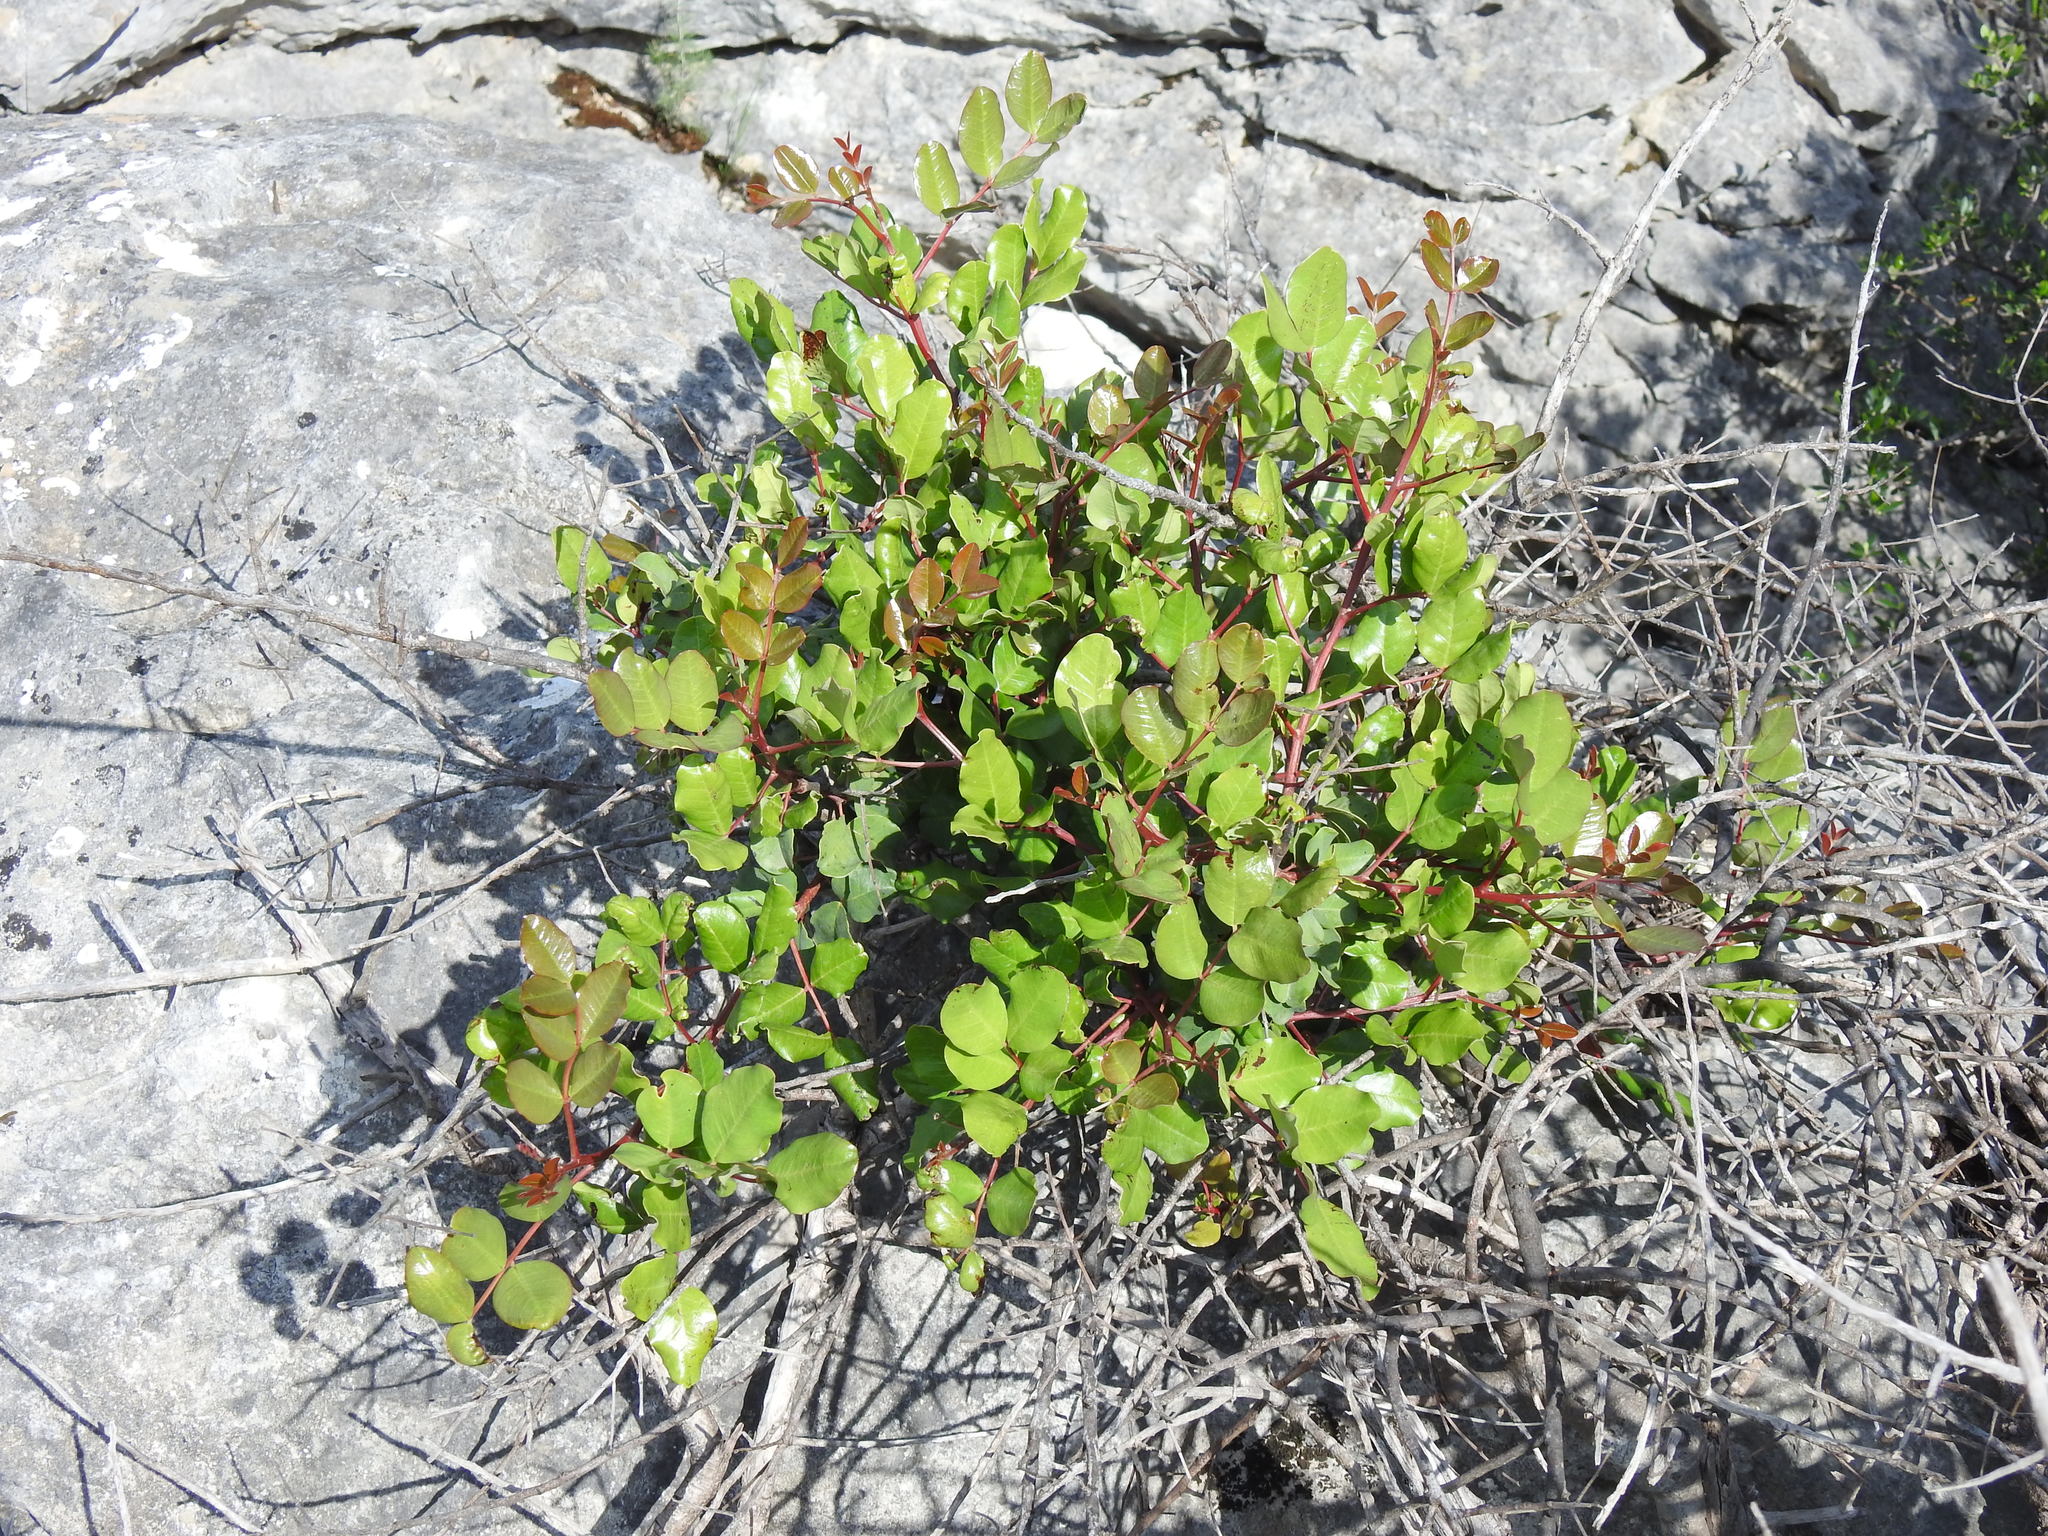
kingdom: Plantae
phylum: Tracheophyta
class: Magnoliopsida
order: Fabales
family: Fabaceae
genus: Ceratonia
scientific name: Ceratonia siliqua
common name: Carob
